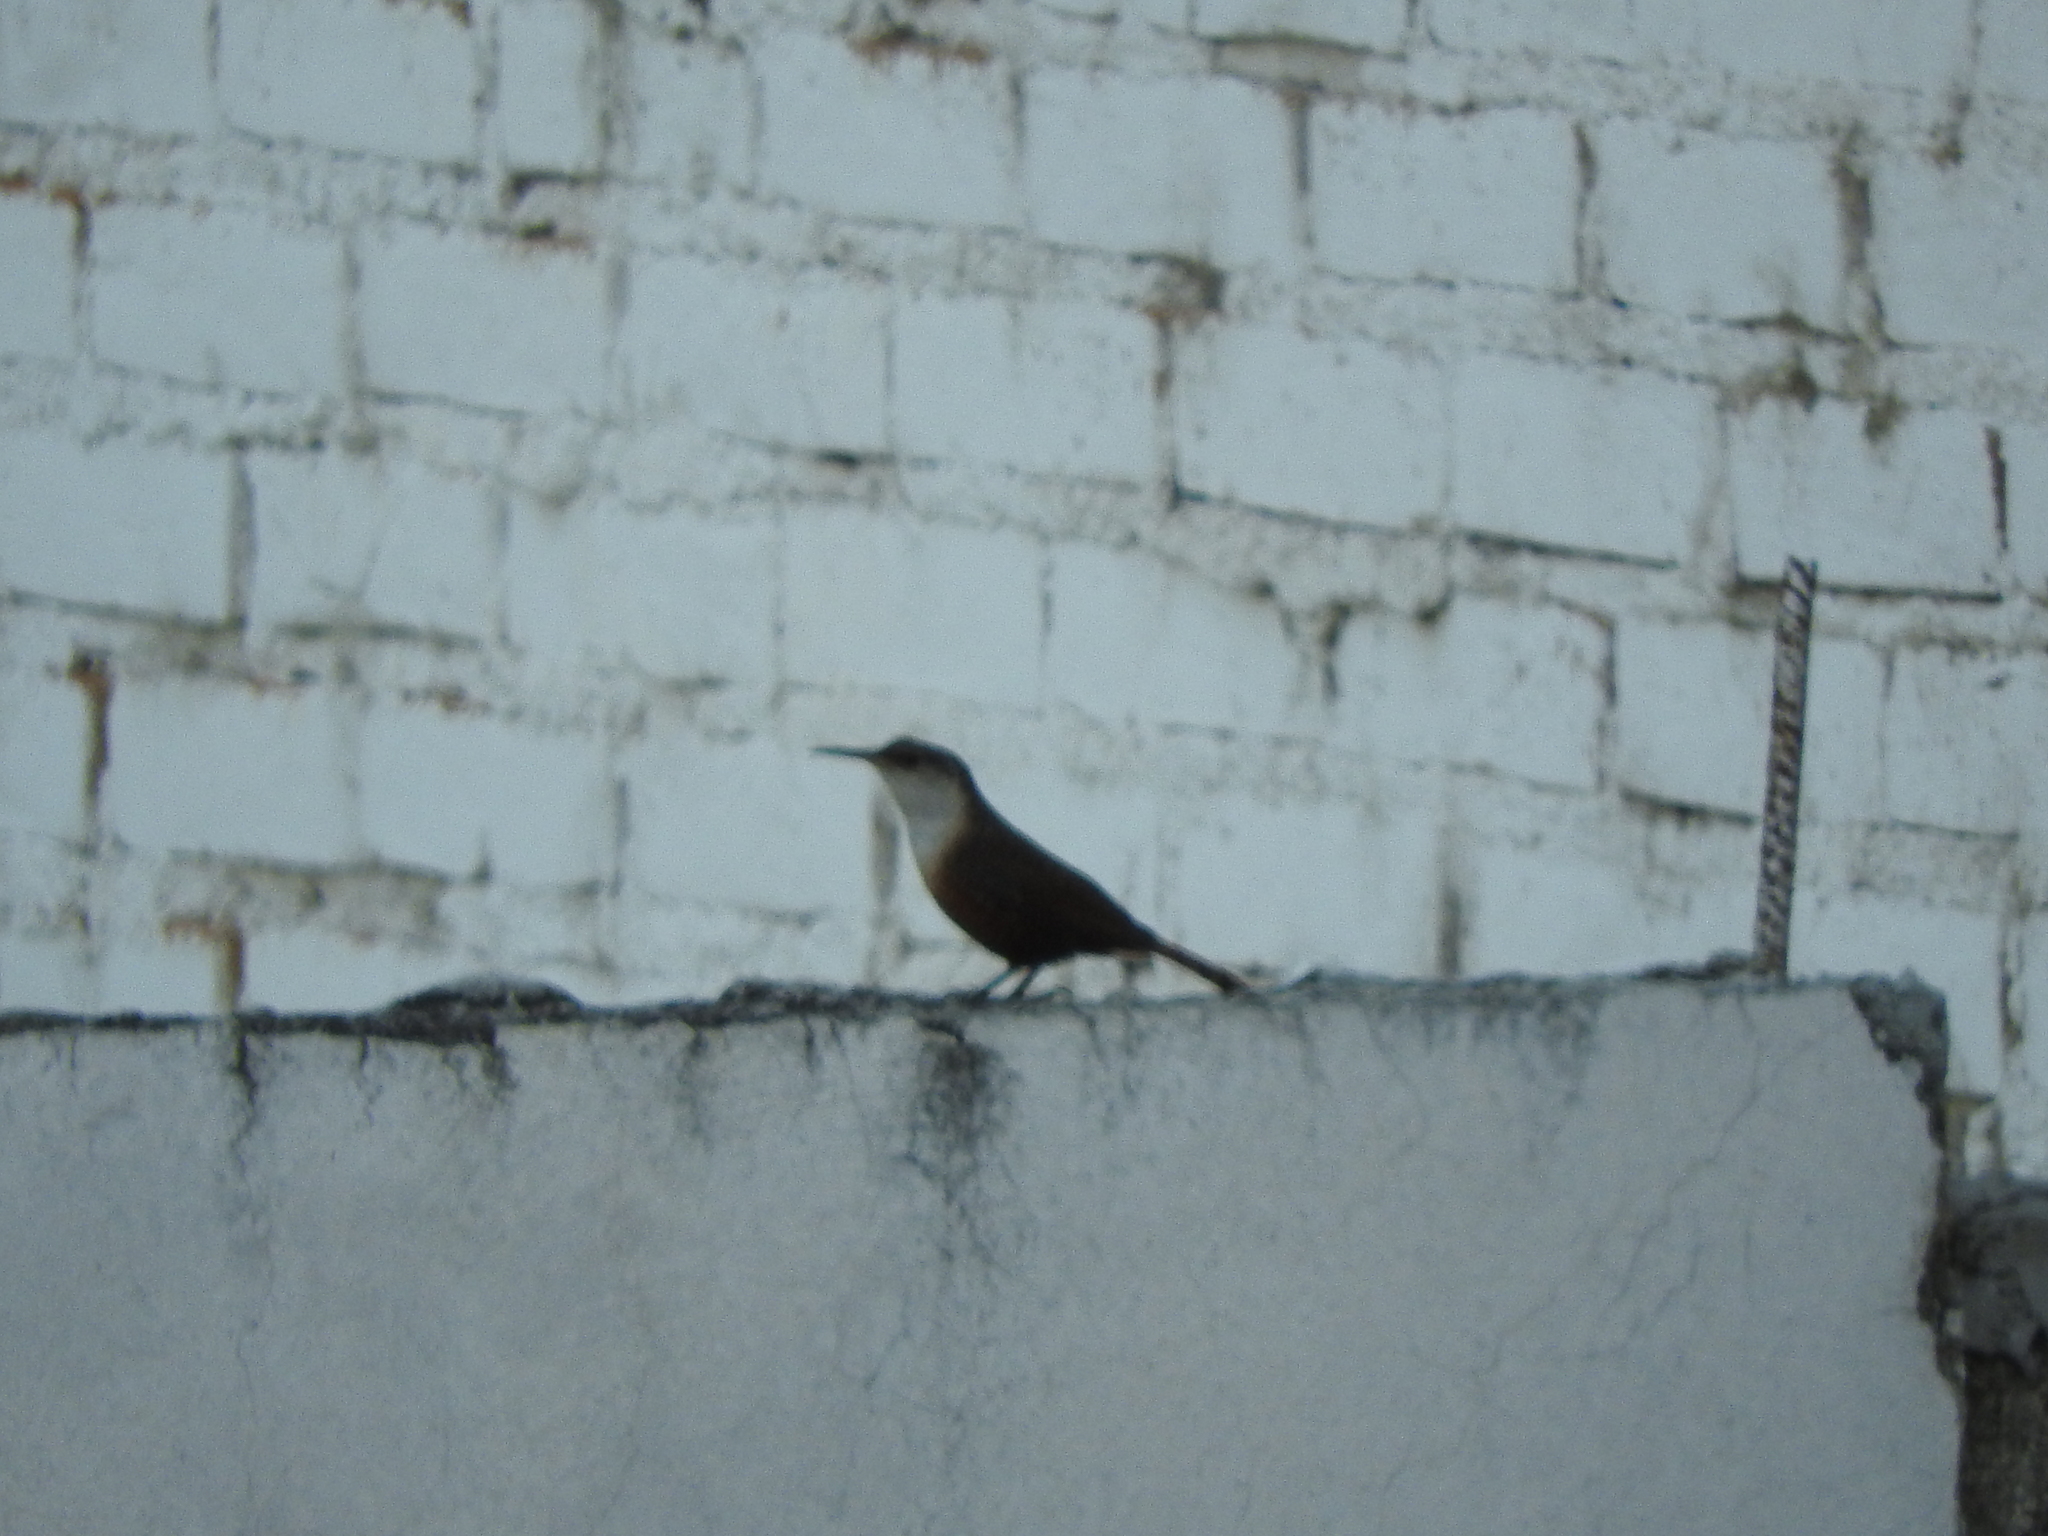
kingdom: Animalia
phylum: Chordata
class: Aves
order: Passeriformes
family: Troglodytidae
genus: Catherpes
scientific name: Catherpes mexicanus
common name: Canyon wren
